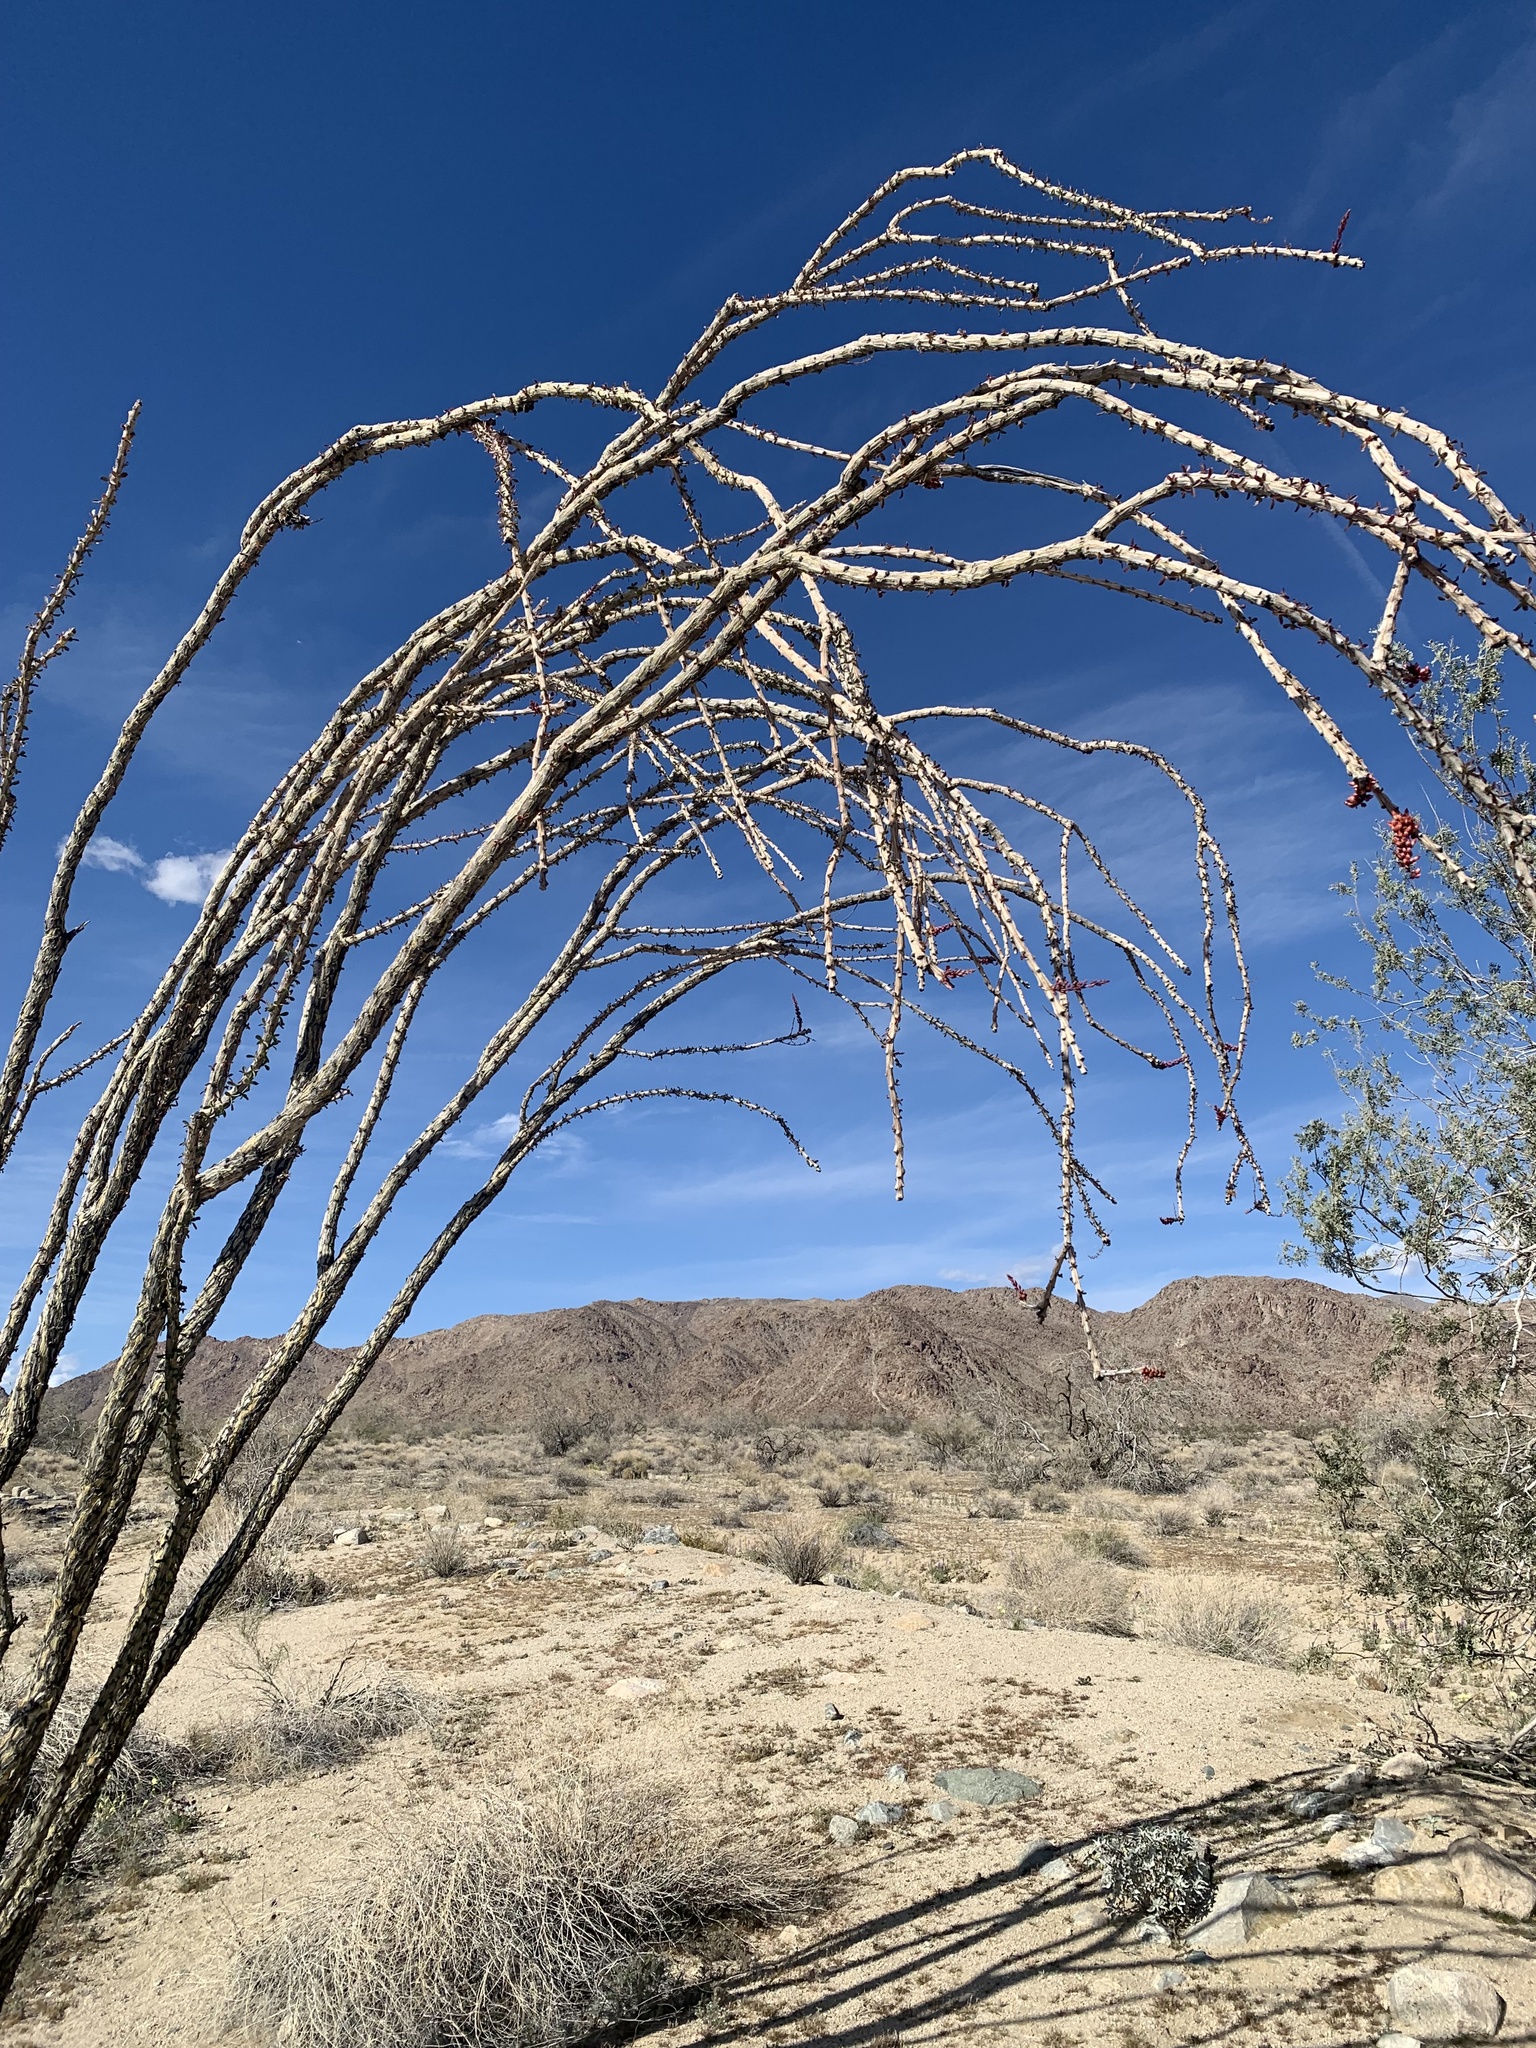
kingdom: Plantae
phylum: Tracheophyta
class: Magnoliopsida
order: Ericales
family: Fouquieriaceae
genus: Fouquieria
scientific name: Fouquieria splendens
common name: Vine-cactus
